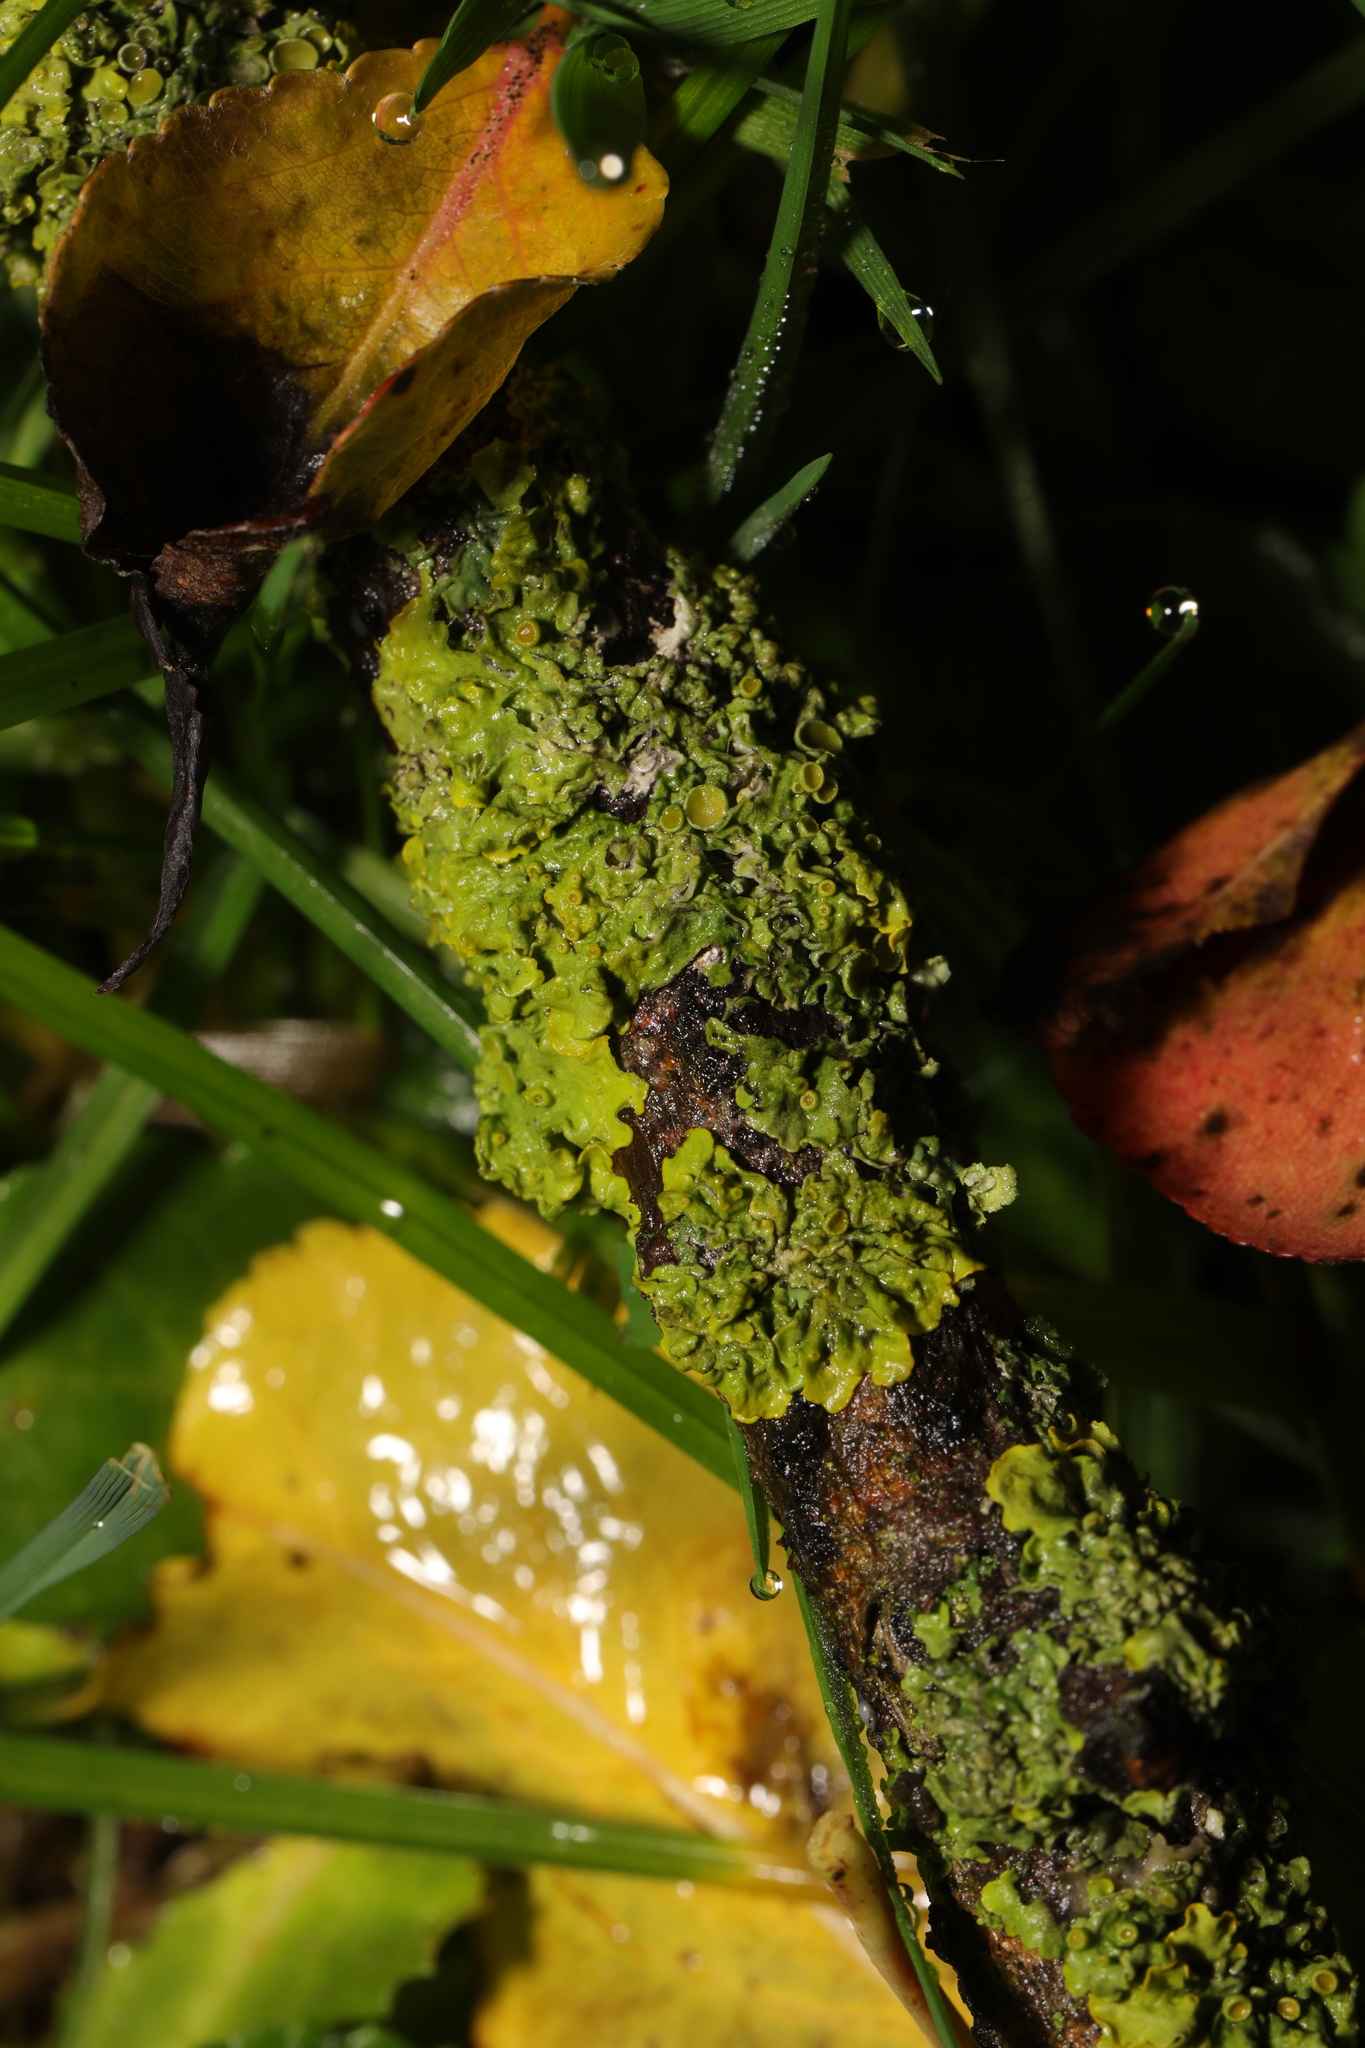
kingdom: Fungi
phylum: Ascomycota
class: Lecanoromycetes
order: Teloschistales
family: Teloschistaceae
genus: Xanthoria
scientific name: Xanthoria parietina
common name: Common orange lichen
